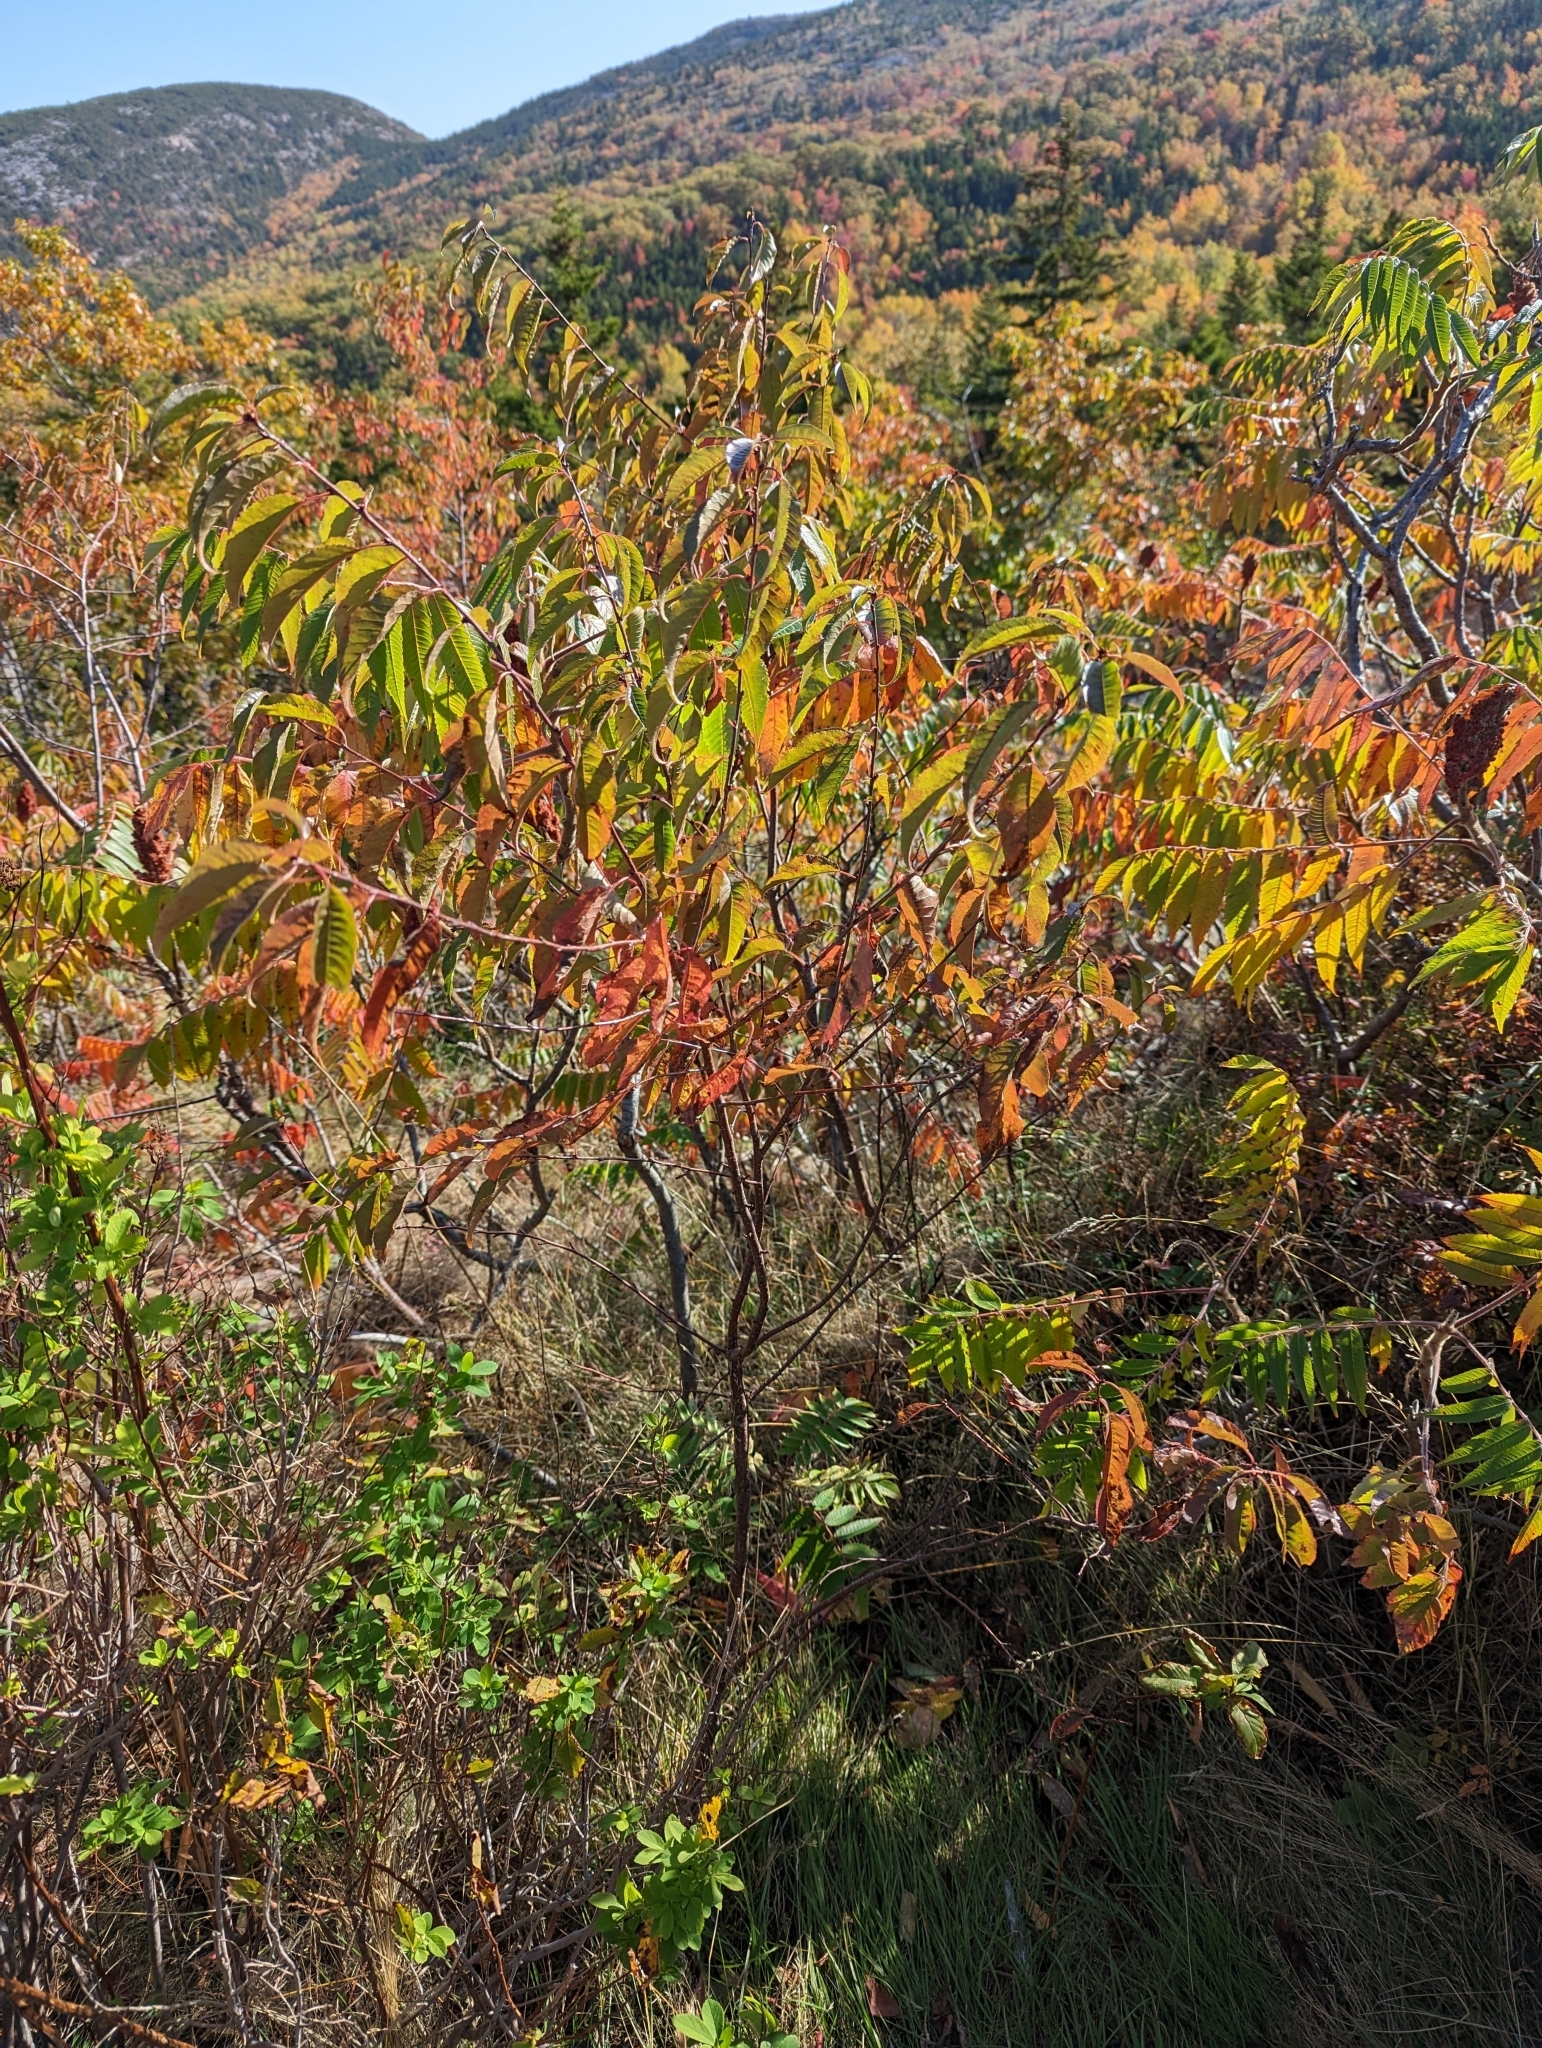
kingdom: Plantae
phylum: Tracheophyta
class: Magnoliopsida
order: Sapindales
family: Anacardiaceae
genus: Rhus
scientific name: Rhus typhina
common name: Staghorn sumac
